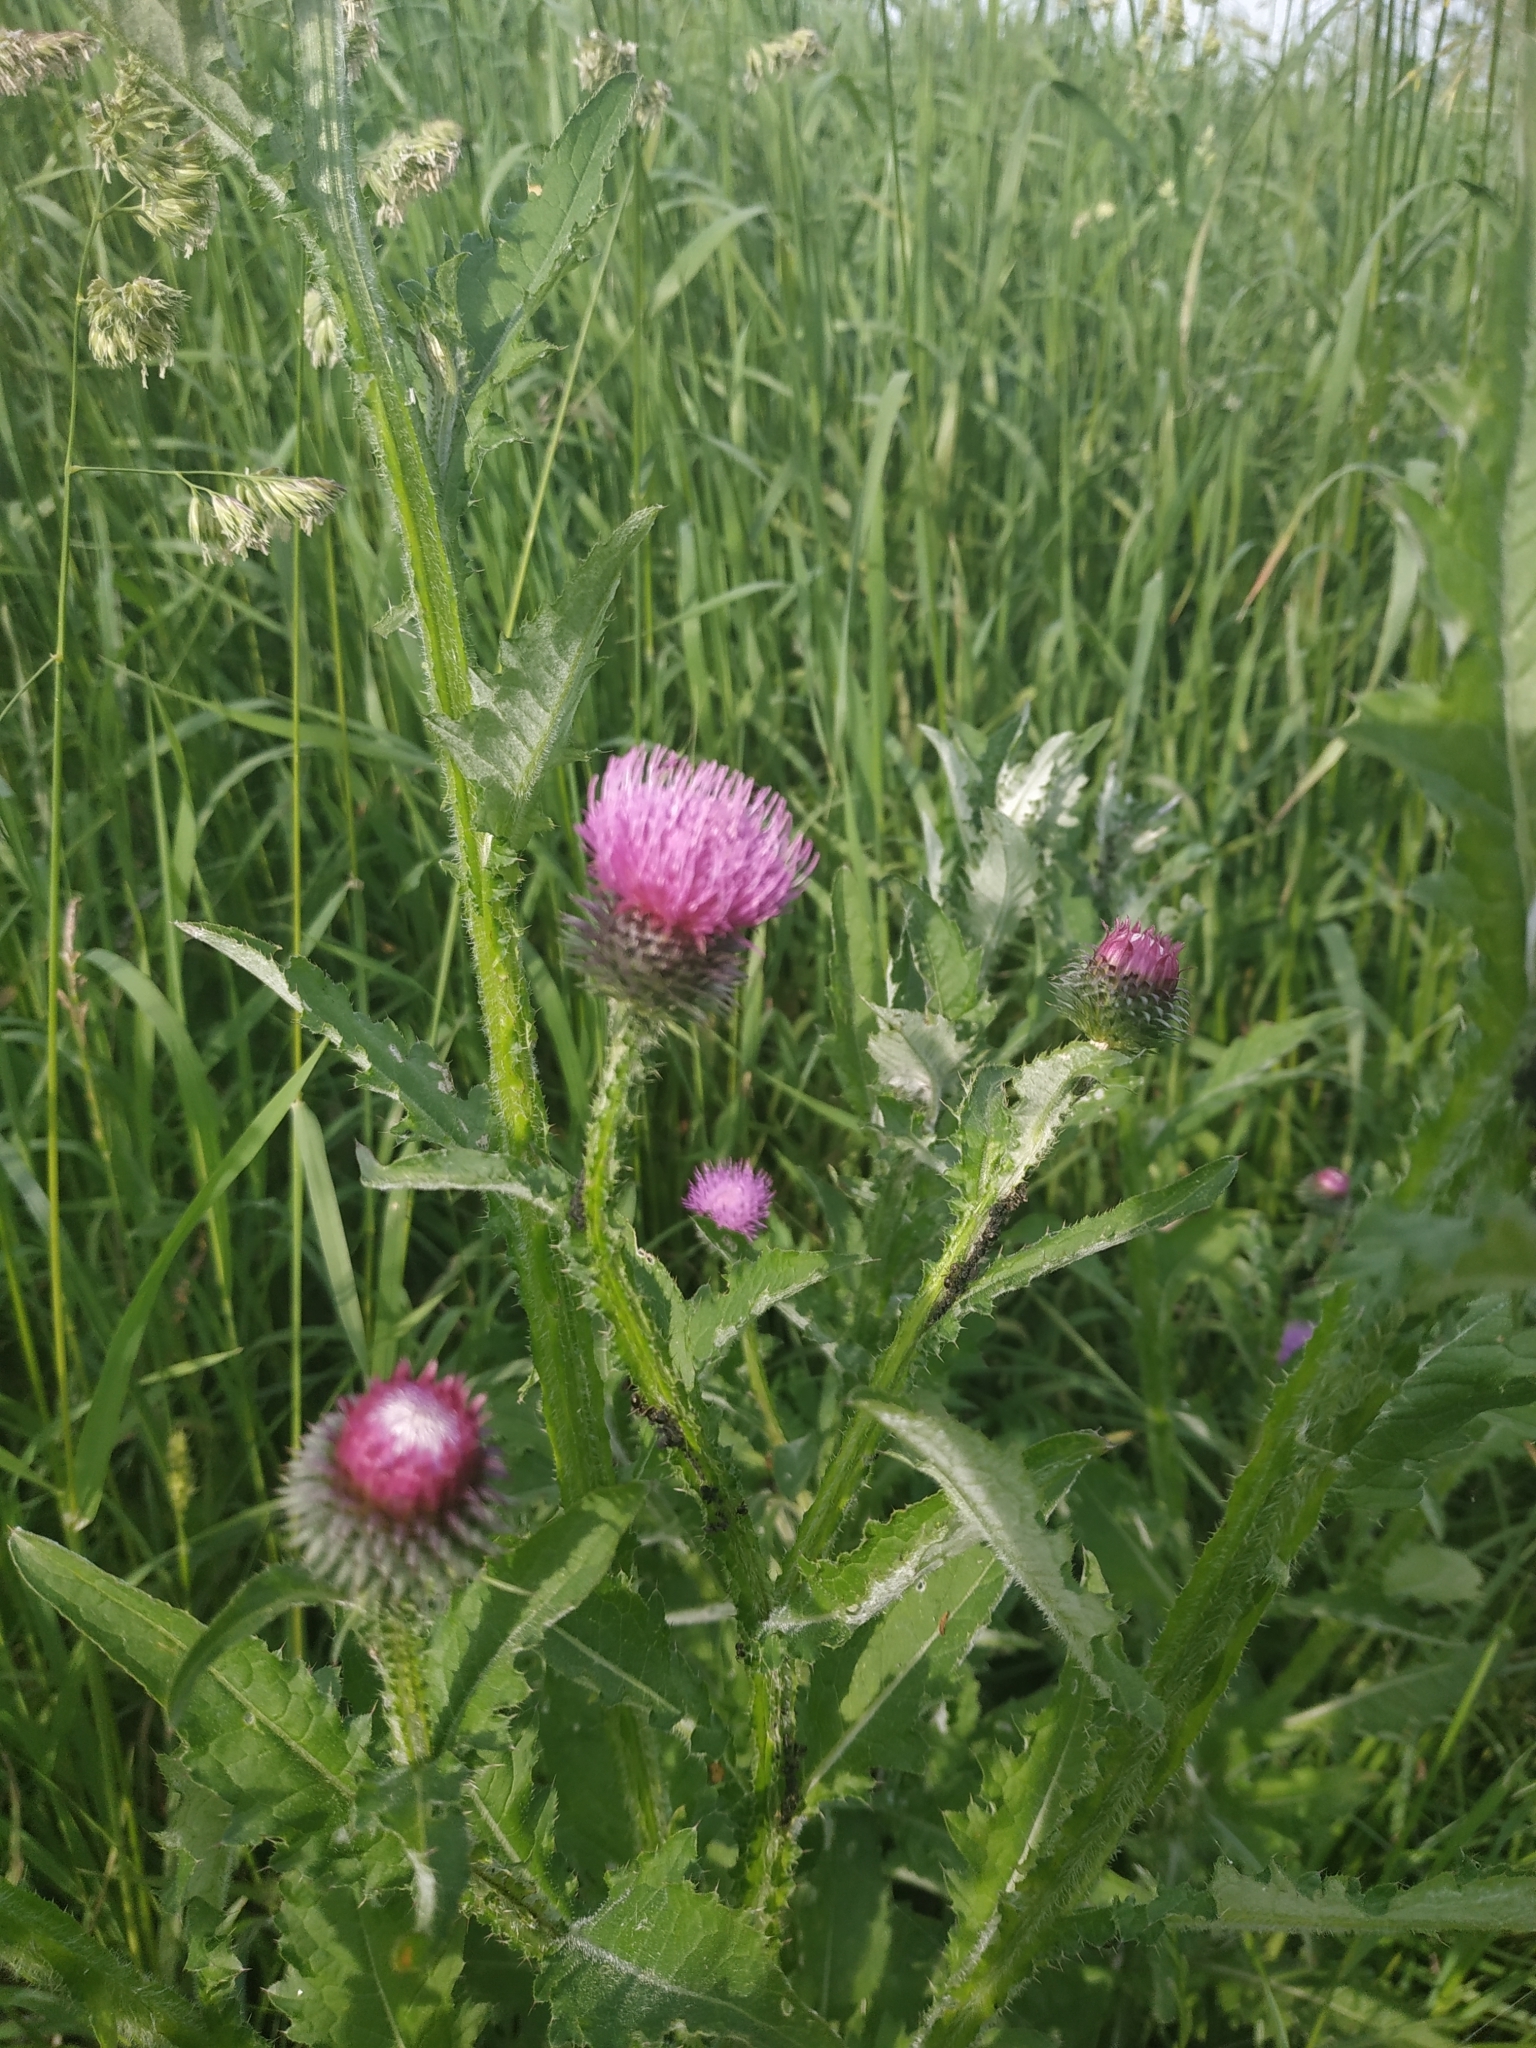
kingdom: Plantae
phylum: Tracheophyta
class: Magnoliopsida
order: Asterales
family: Asteraceae
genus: Carduus
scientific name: Carduus crispus
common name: Welted thistle
